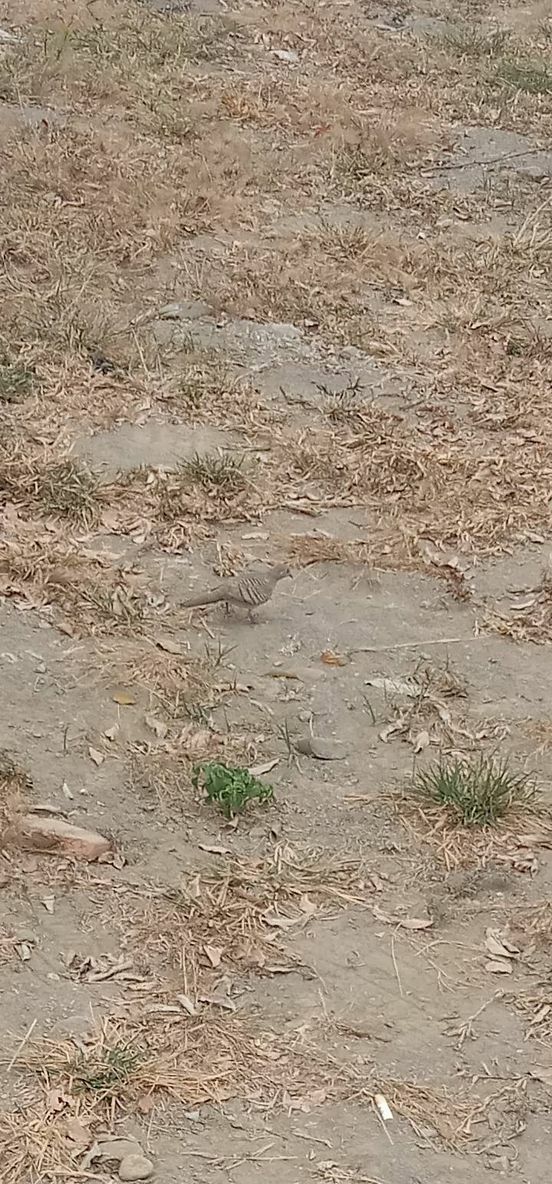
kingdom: Animalia
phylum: Chordata
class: Aves
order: Columbiformes
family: Columbidae
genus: Geopelia
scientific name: Geopelia striata
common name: Zebra dove
